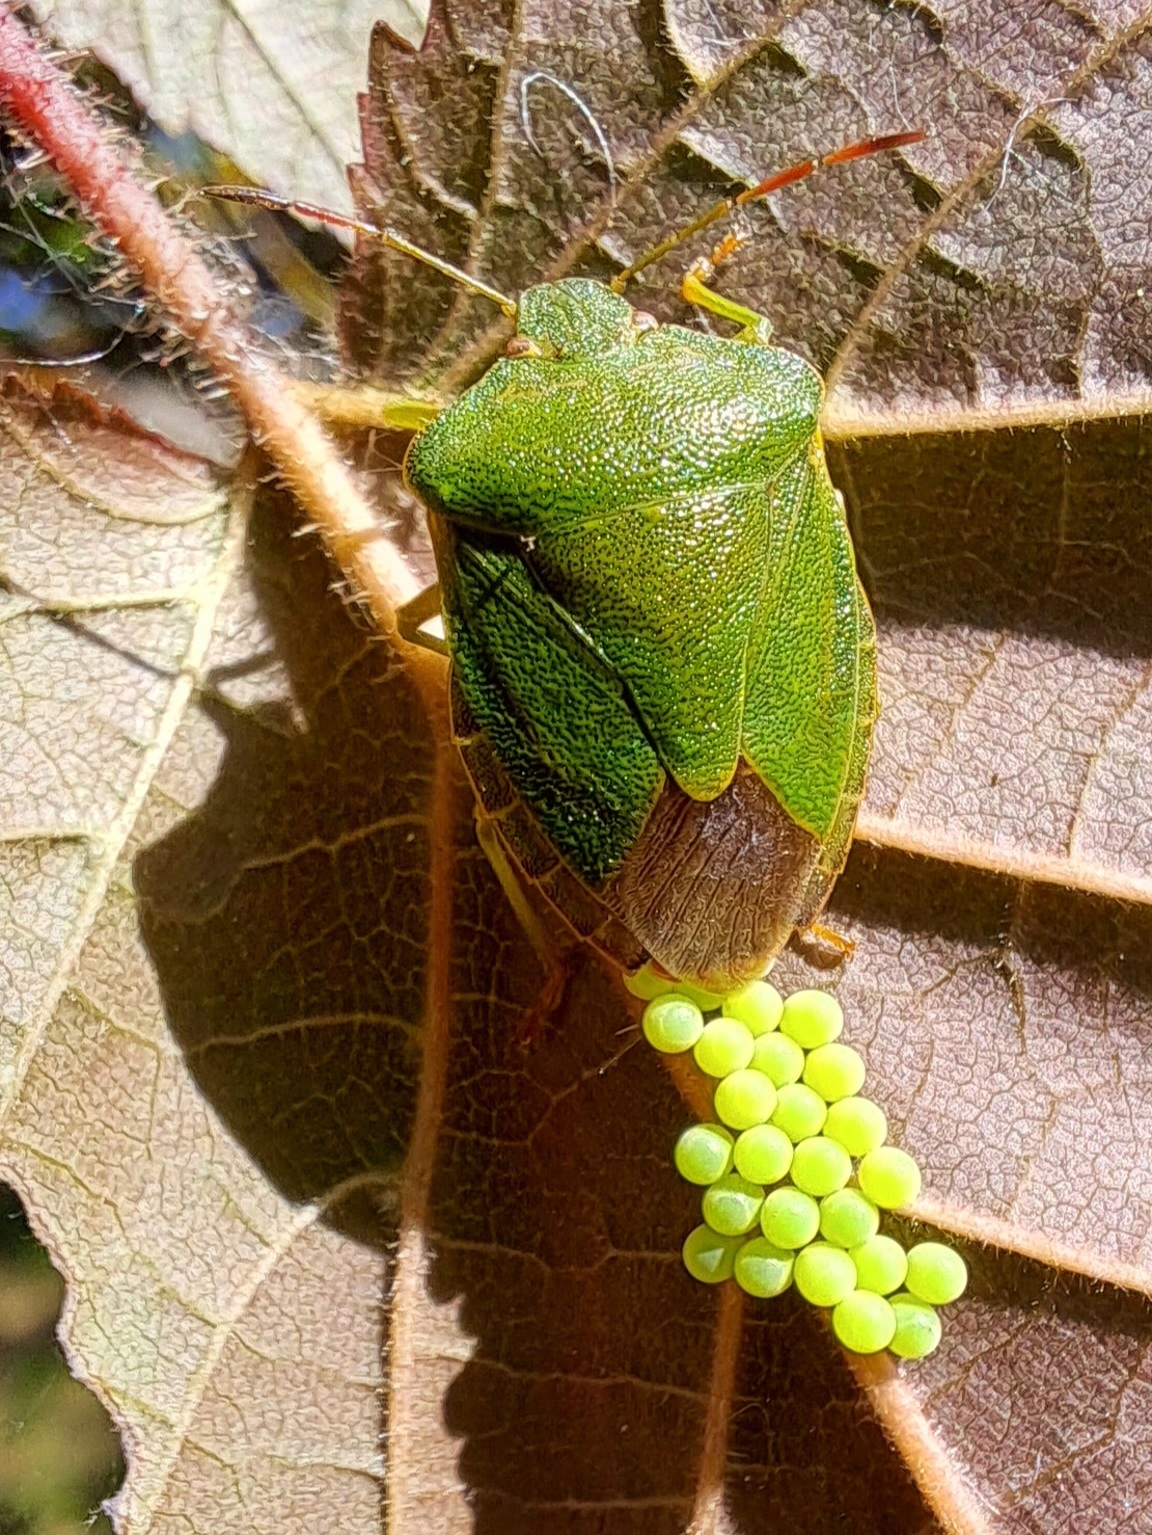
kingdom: Animalia
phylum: Arthropoda
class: Insecta
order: Hemiptera
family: Pentatomidae
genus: Palomena
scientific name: Palomena prasina
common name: Green shieldbug
